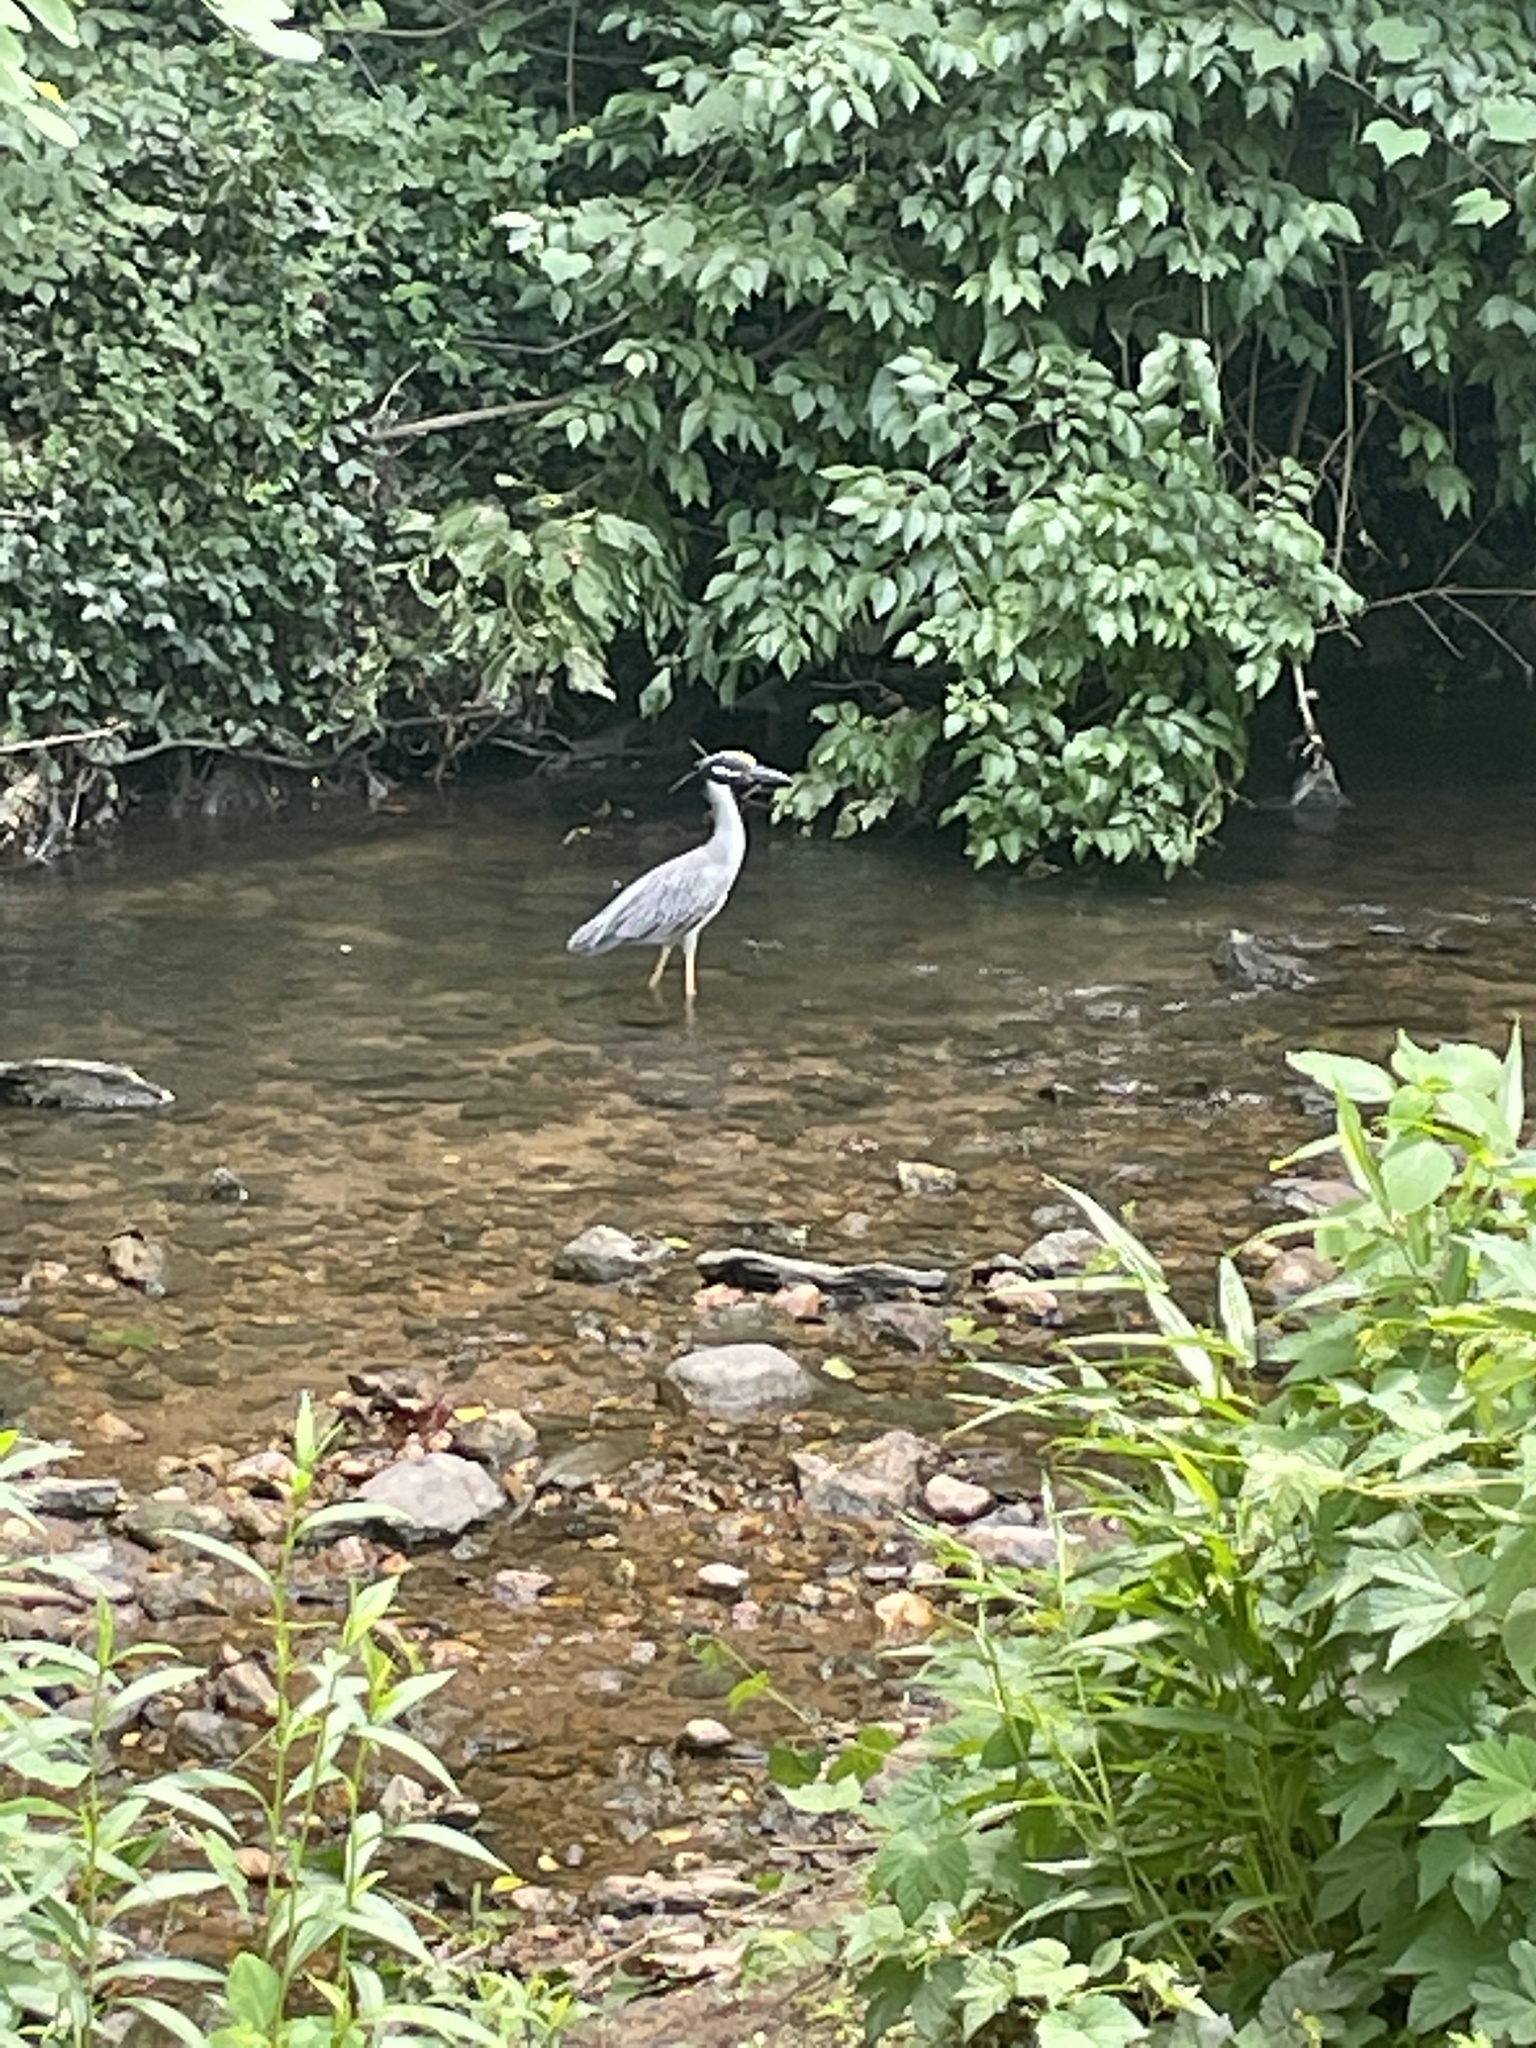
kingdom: Animalia
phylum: Chordata
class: Aves
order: Pelecaniformes
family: Ardeidae
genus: Nyctanassa
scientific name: Nyctanassa violacea
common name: Yellow-crowned night heron
